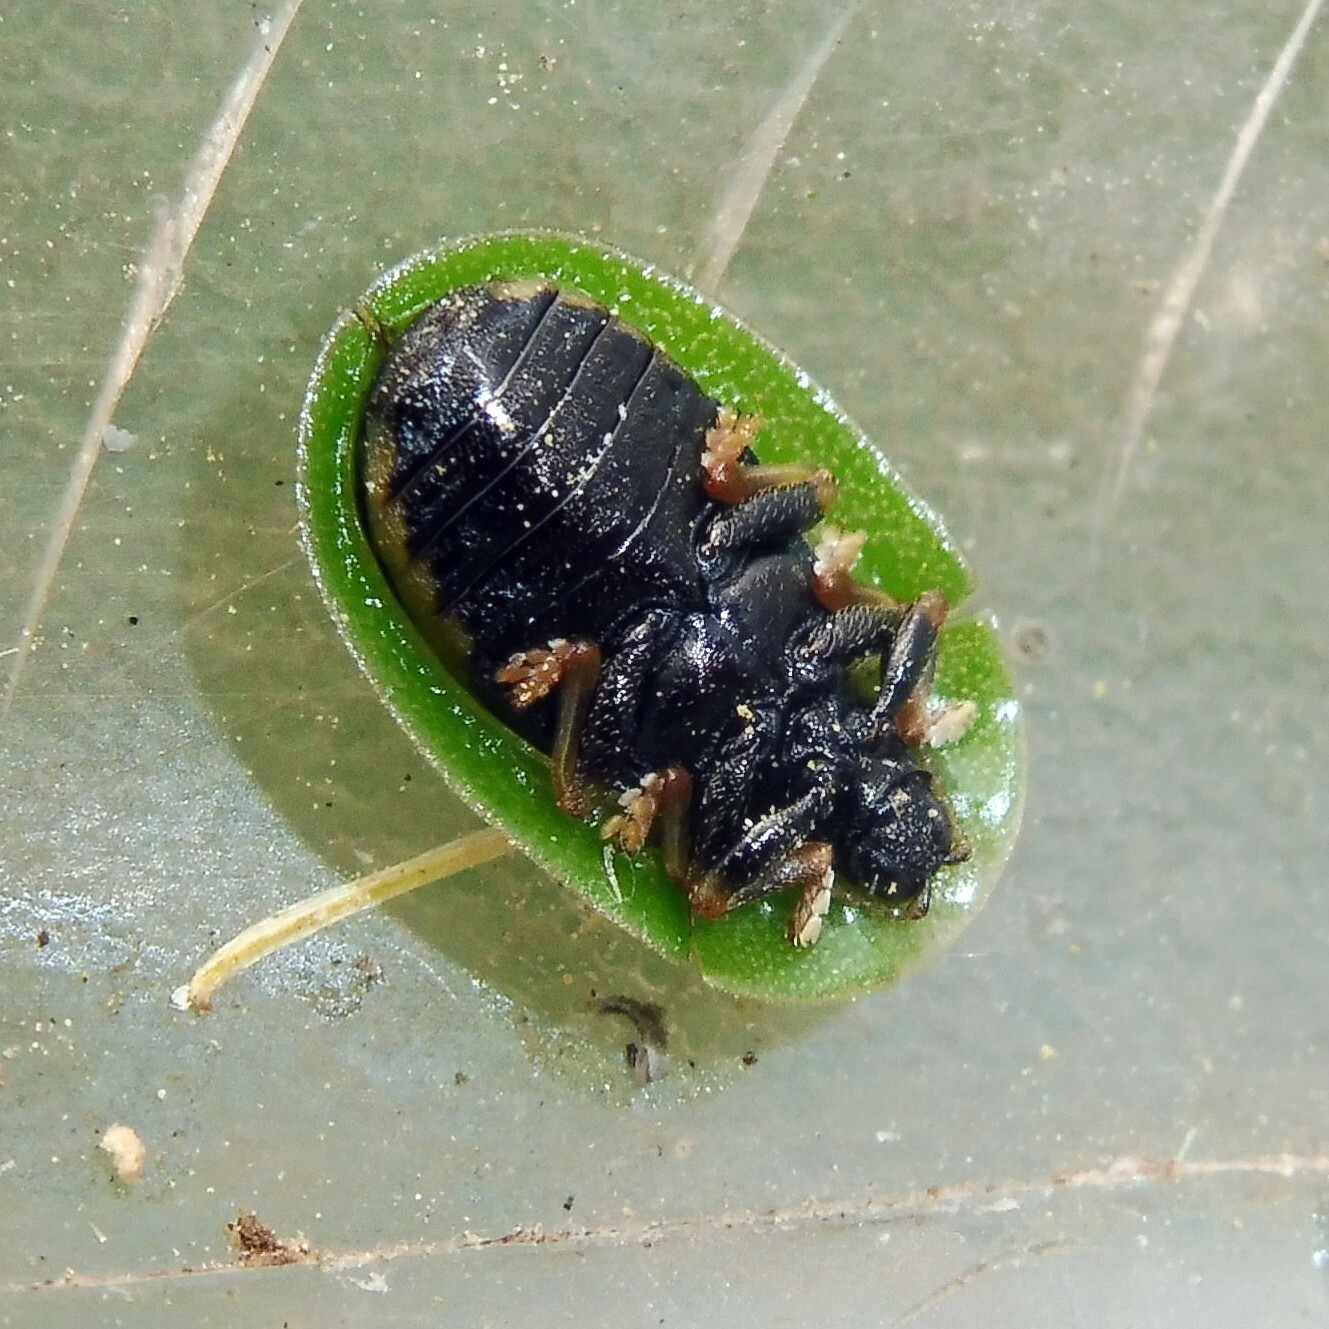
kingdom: Animalia
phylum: Arthropoda
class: Insecta
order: Coleoptera
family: Chrysomelidae
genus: Cassida
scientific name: Cassida rubiginosa
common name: Thistle tortoise beetle
